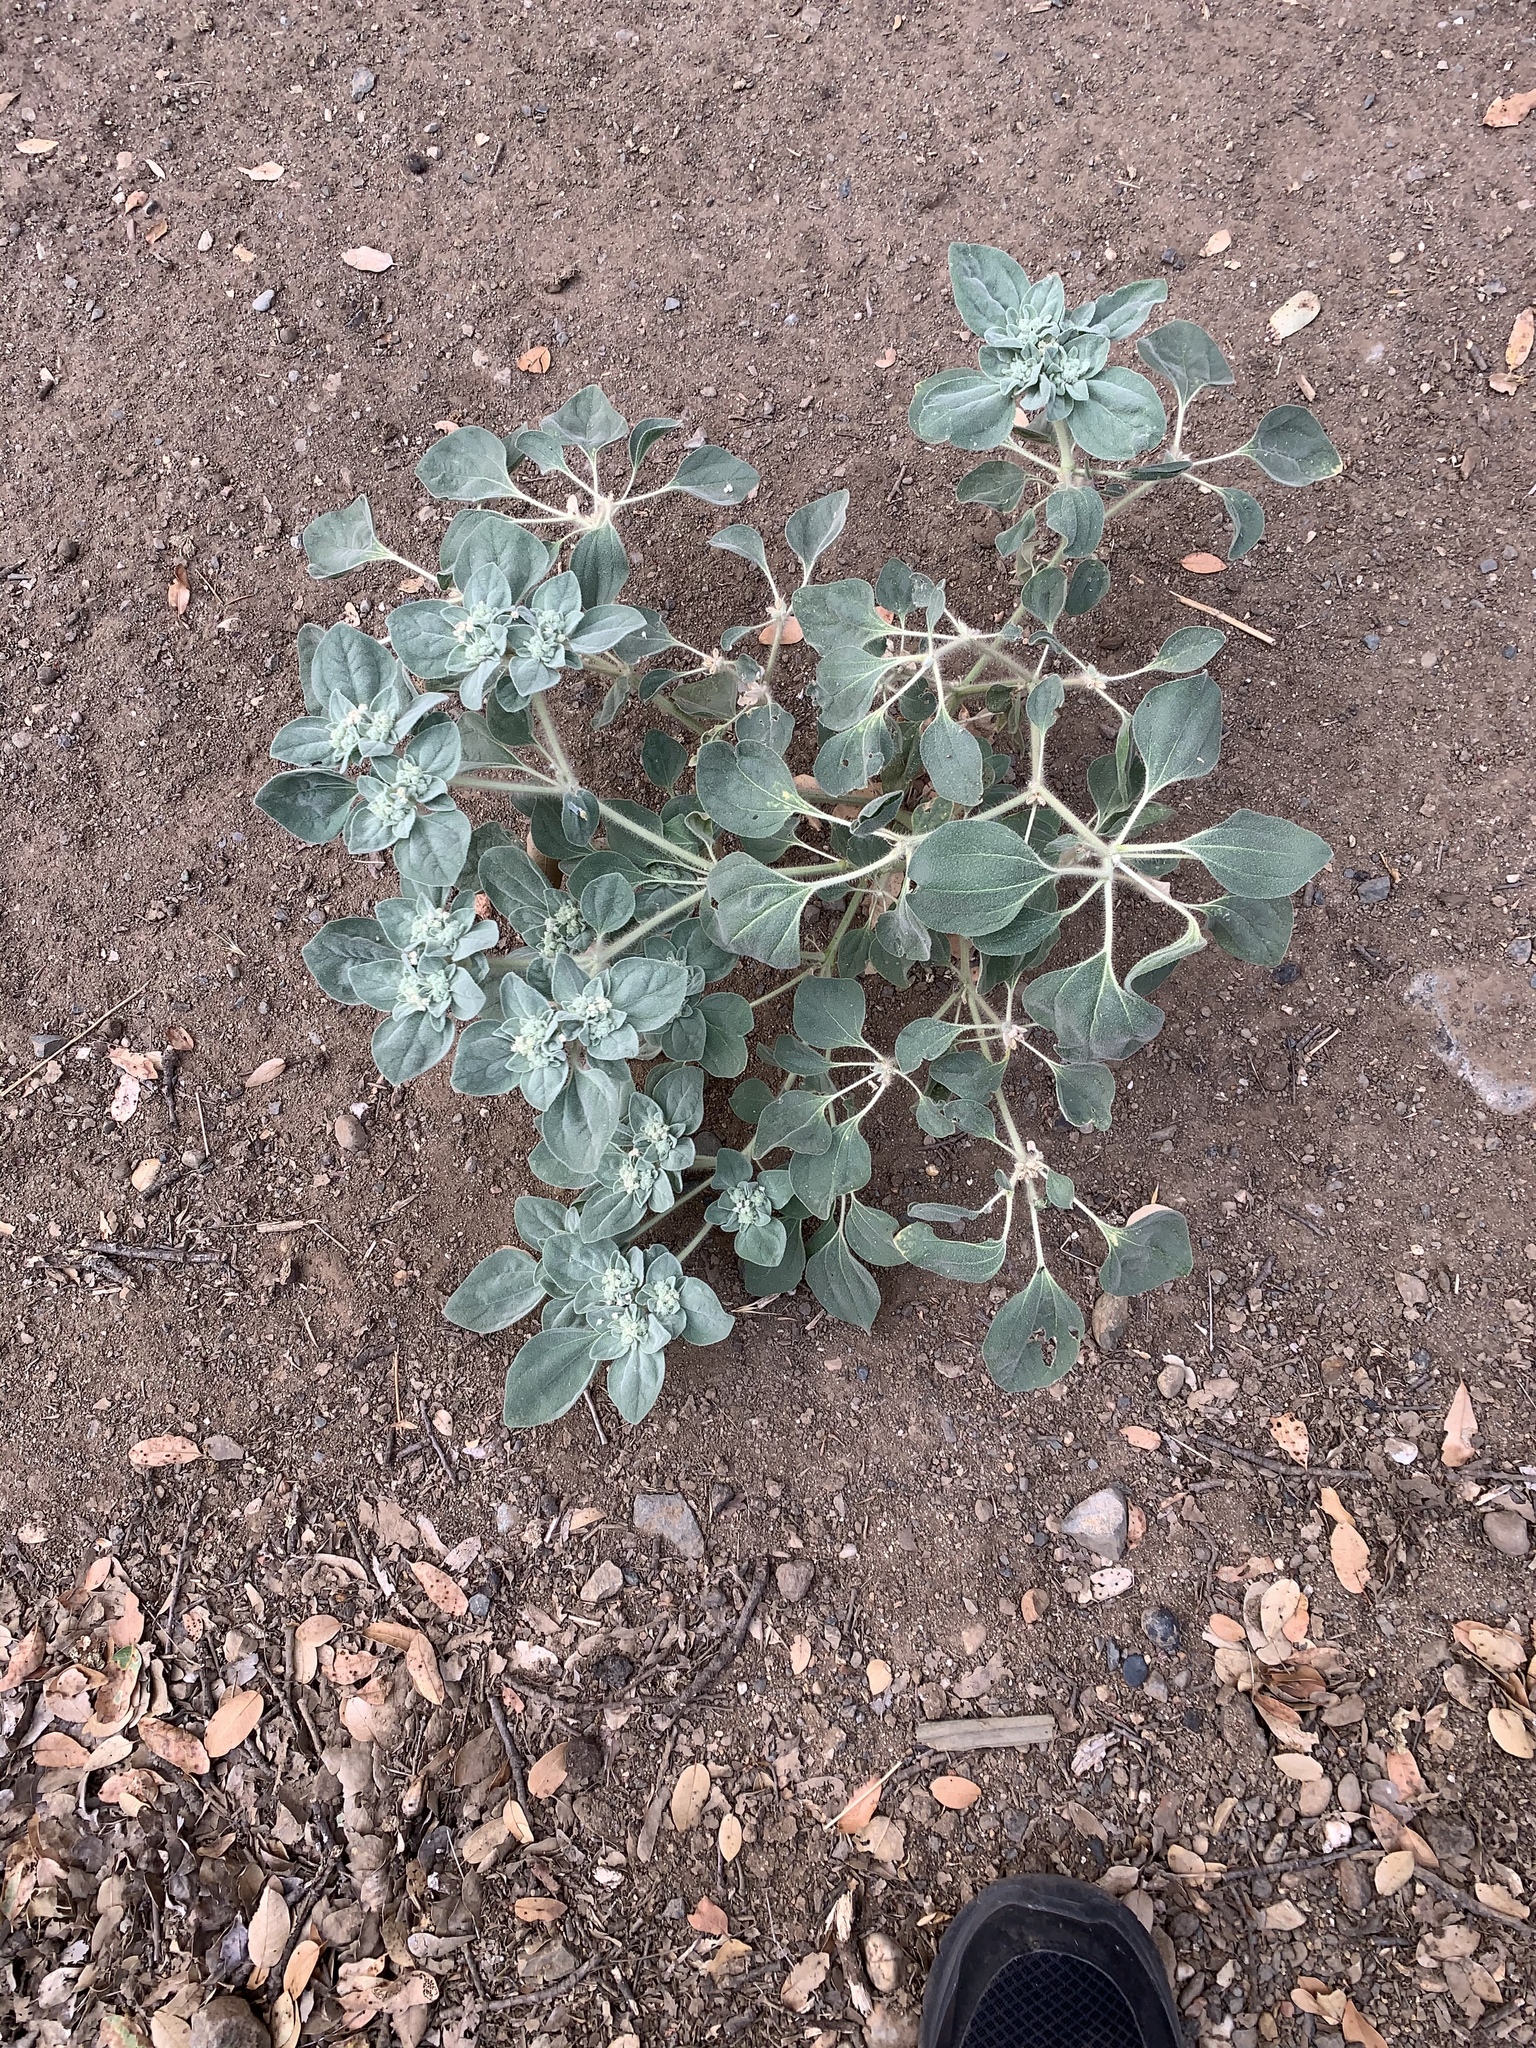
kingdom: Plantae
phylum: Tracheophyta
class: Magnoliopsida
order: Malpighiales
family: Euphorbiaceae
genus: Croton
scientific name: Croton setiger
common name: Dove weed
